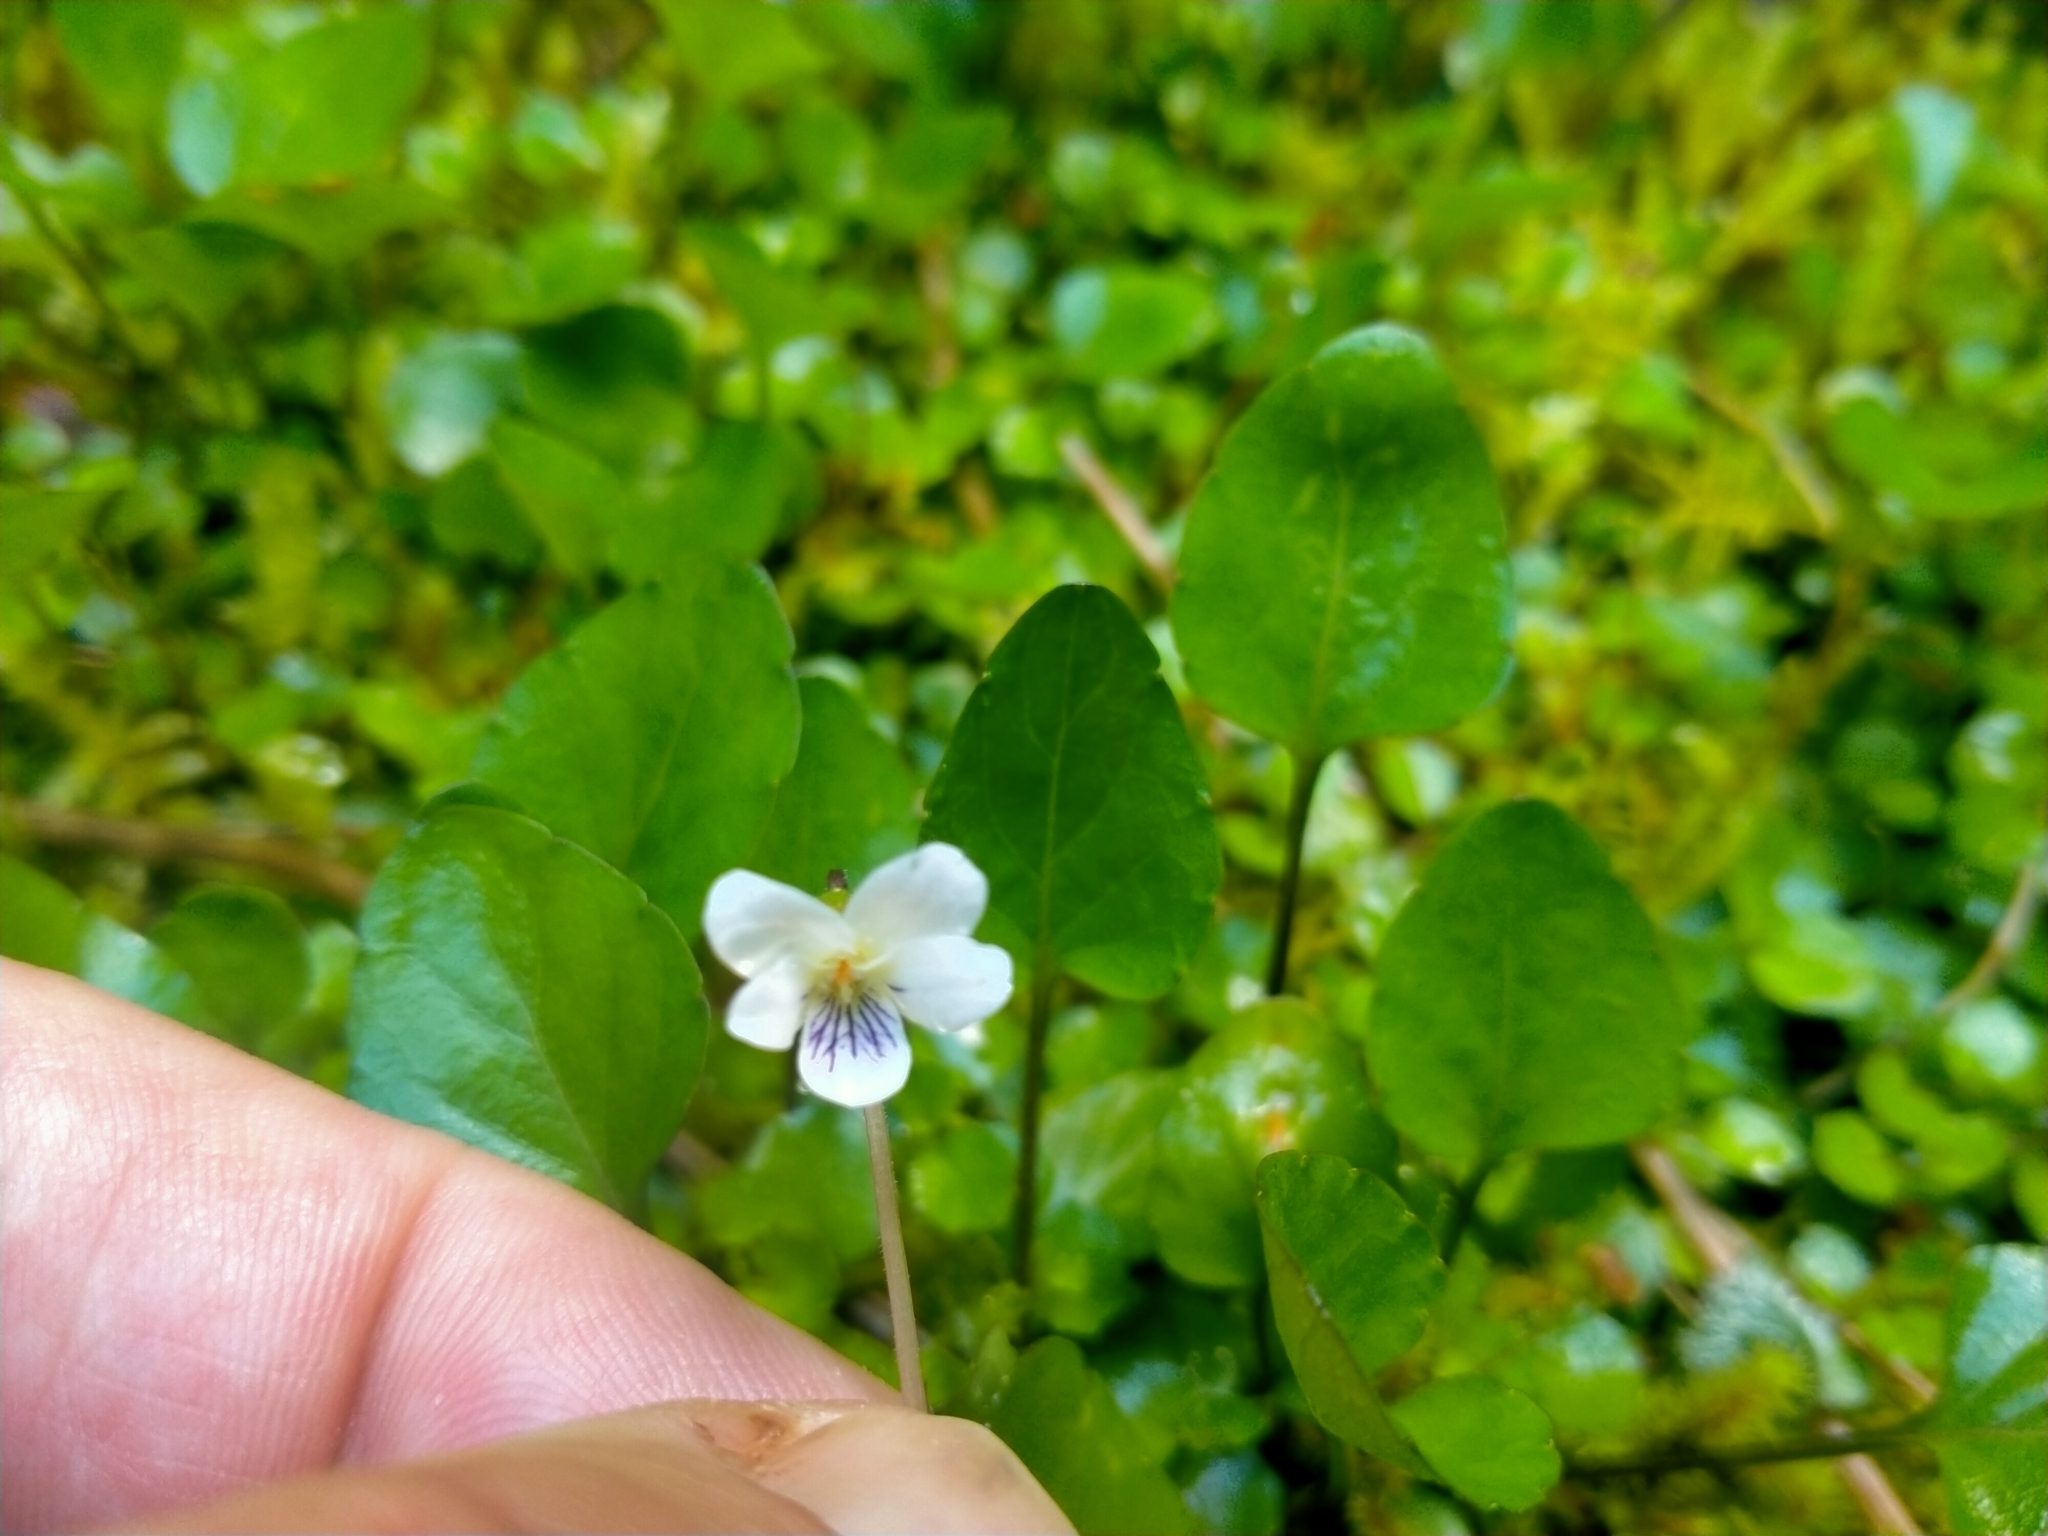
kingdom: Plantae
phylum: Tracheophyta
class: Magnoliopsida
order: Malpighiales
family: Violaceae
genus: Viola
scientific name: Viola cunninghamii
